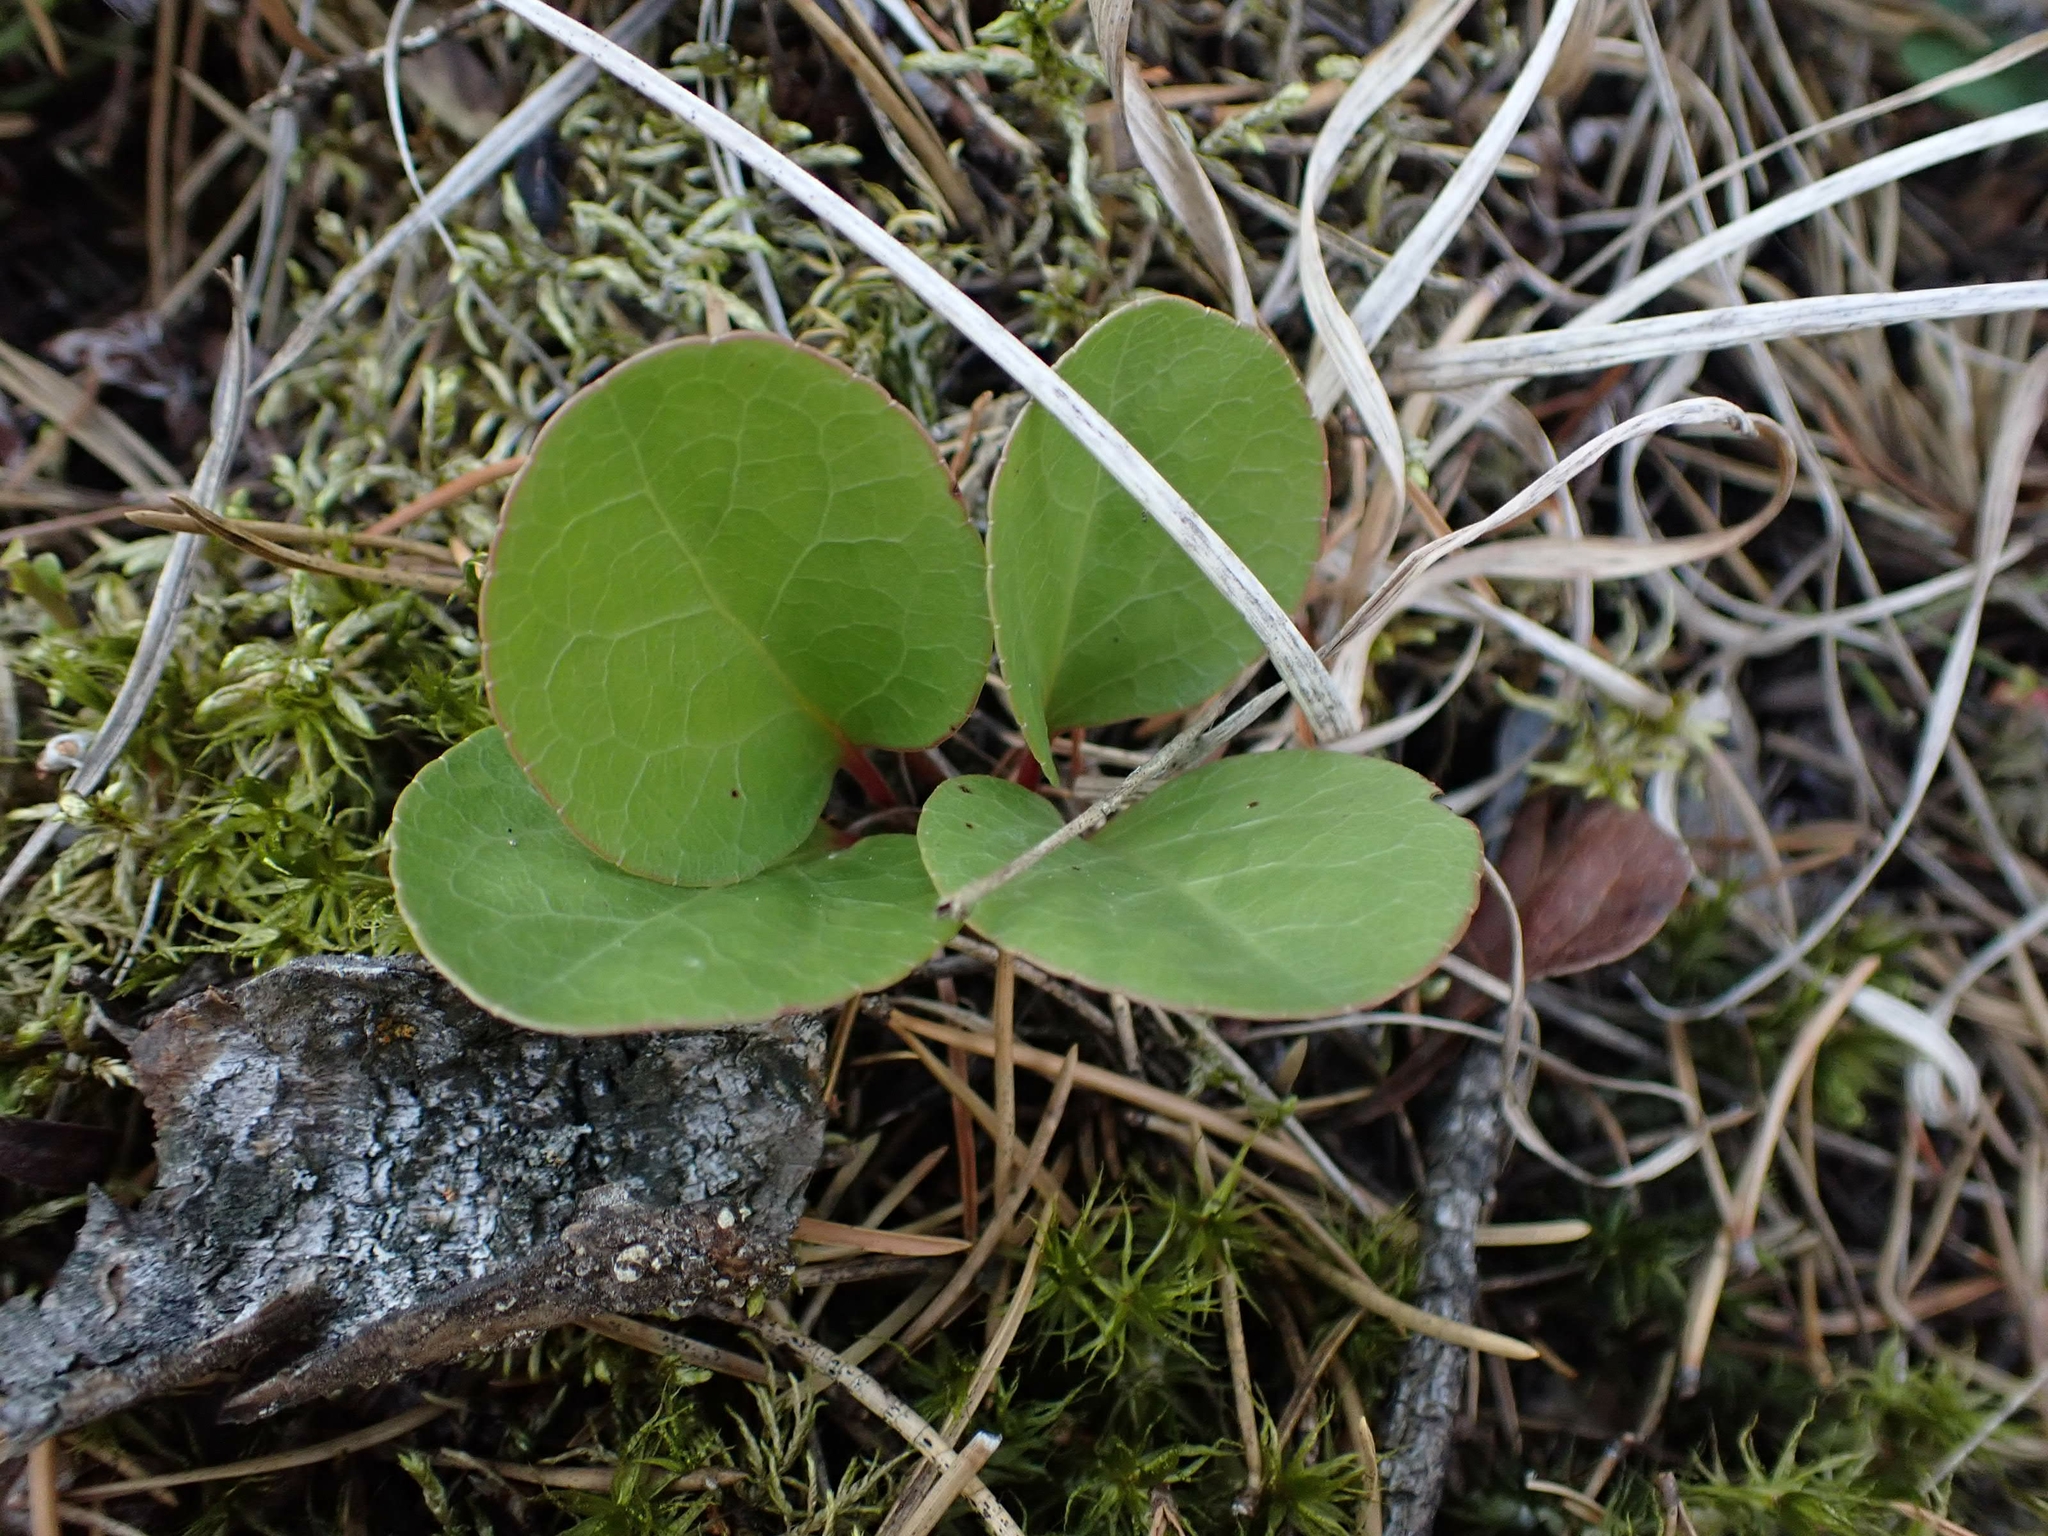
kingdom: Plantae
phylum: Tracheophyta
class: Magnoliopsida
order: Ericales
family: Ericaceae
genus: Pyrola
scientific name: Pyrola asarifolia
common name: Bog wintergreen
